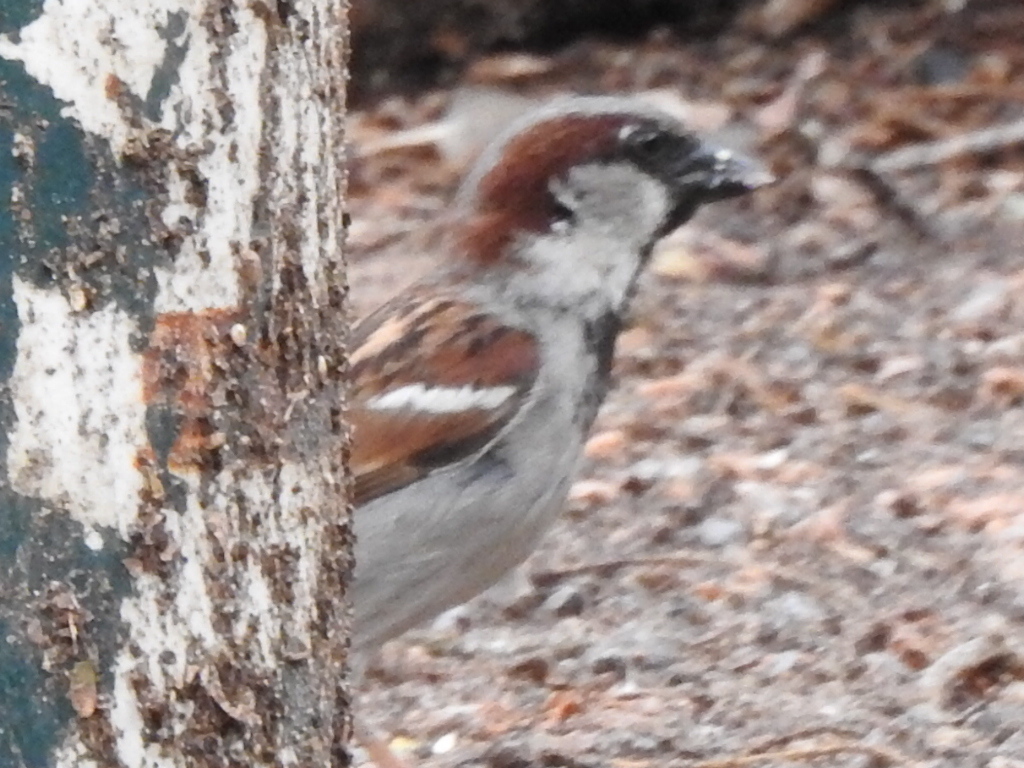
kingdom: Animalia
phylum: Chordata
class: Aves
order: Passeriformes
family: Passeridae
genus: Passer
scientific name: Passer domesticus
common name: House sparrow
